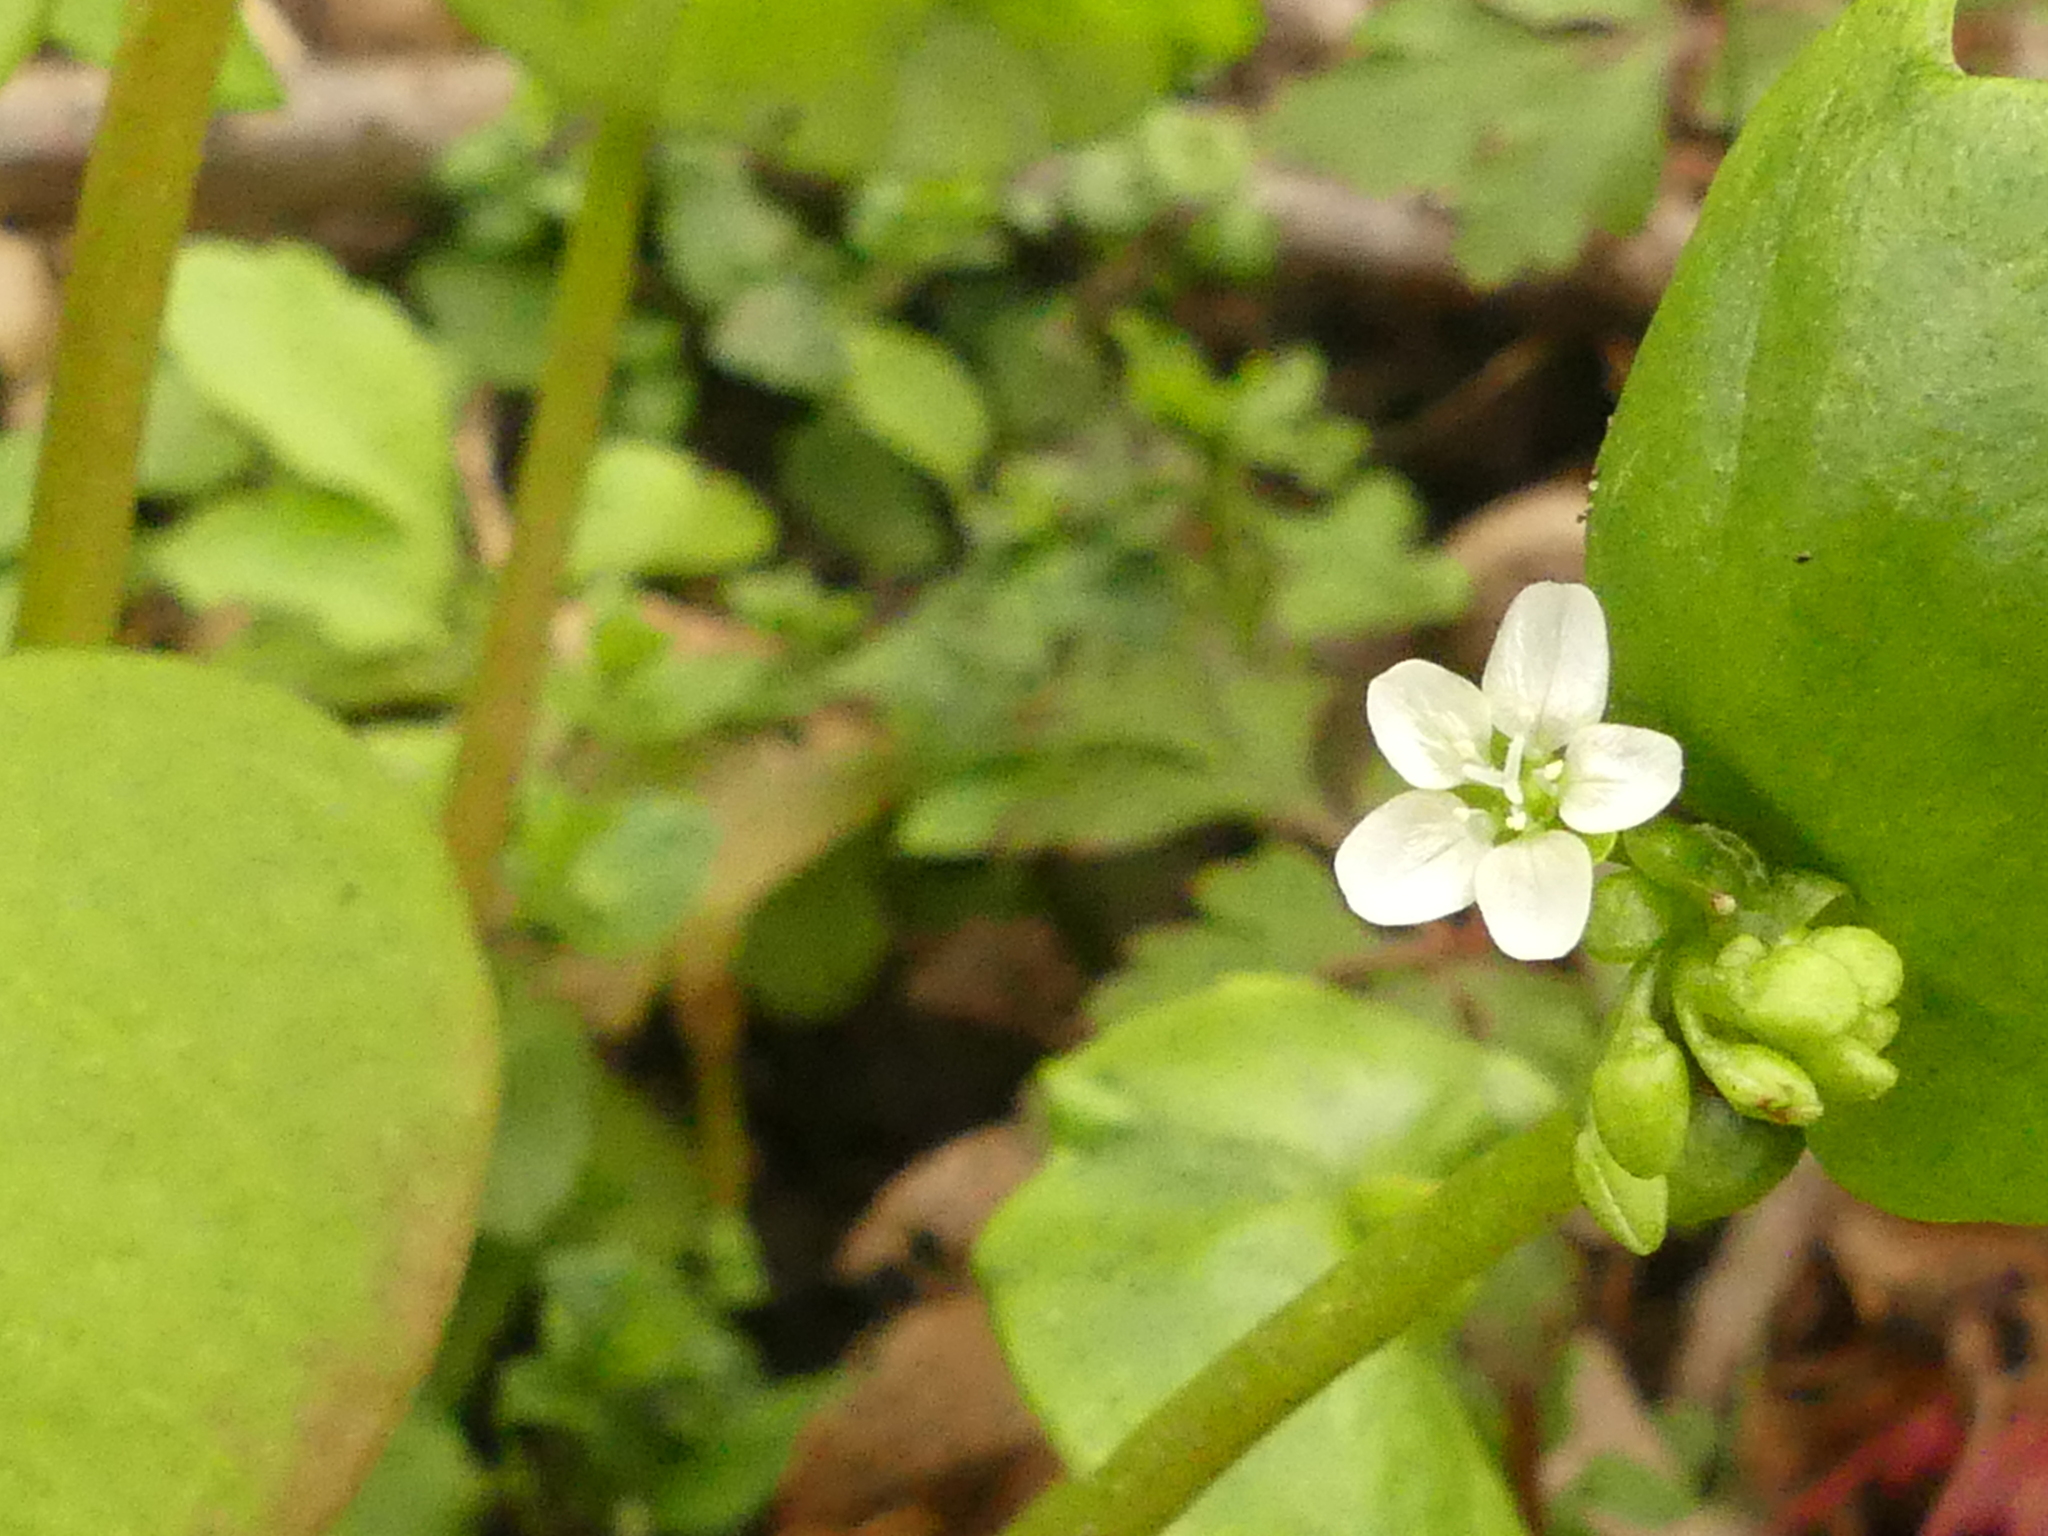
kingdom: Plantae
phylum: Tracheophyta
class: Magnoliopsida
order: Caryophyllales
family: Montiaceae
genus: Claytonia
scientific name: Claytonia perfoliata
